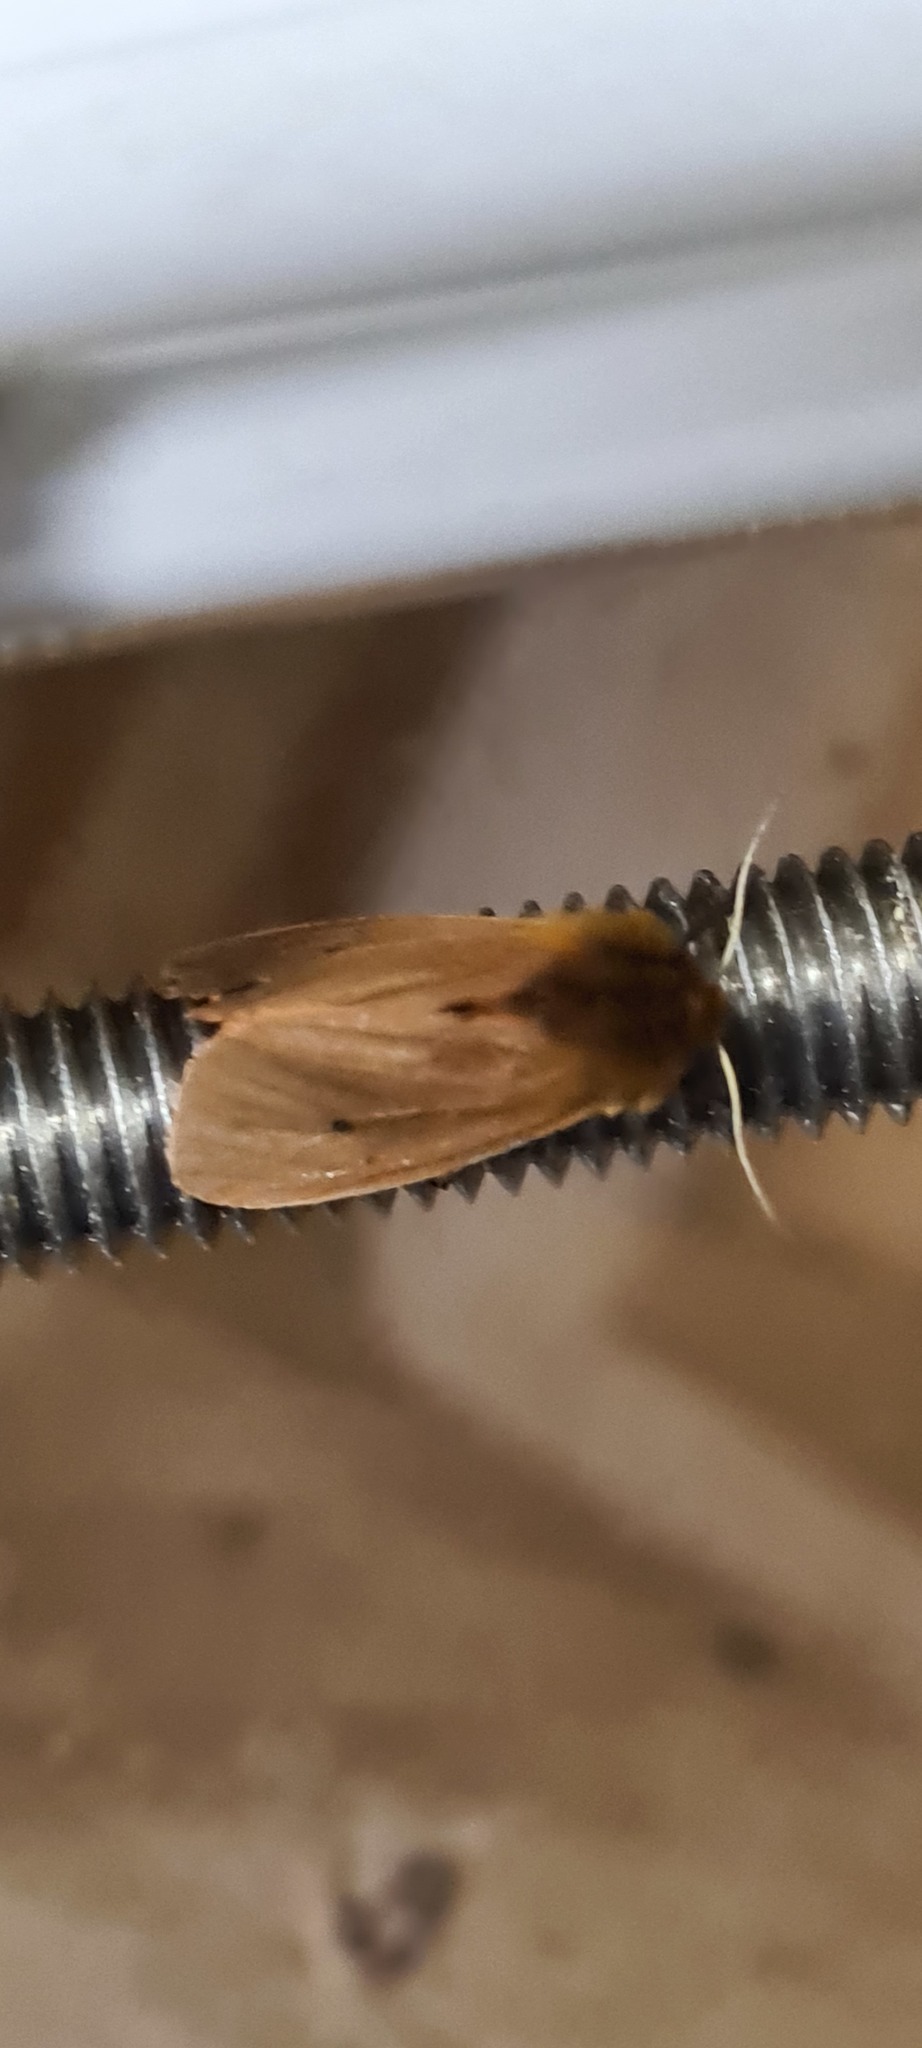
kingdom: Animalia
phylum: Arthropoda
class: Insecta
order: Lepidoptera
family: Erebidae
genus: Phragmatobia
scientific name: Phragmatobia fuliginosa
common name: Ruby tiger
